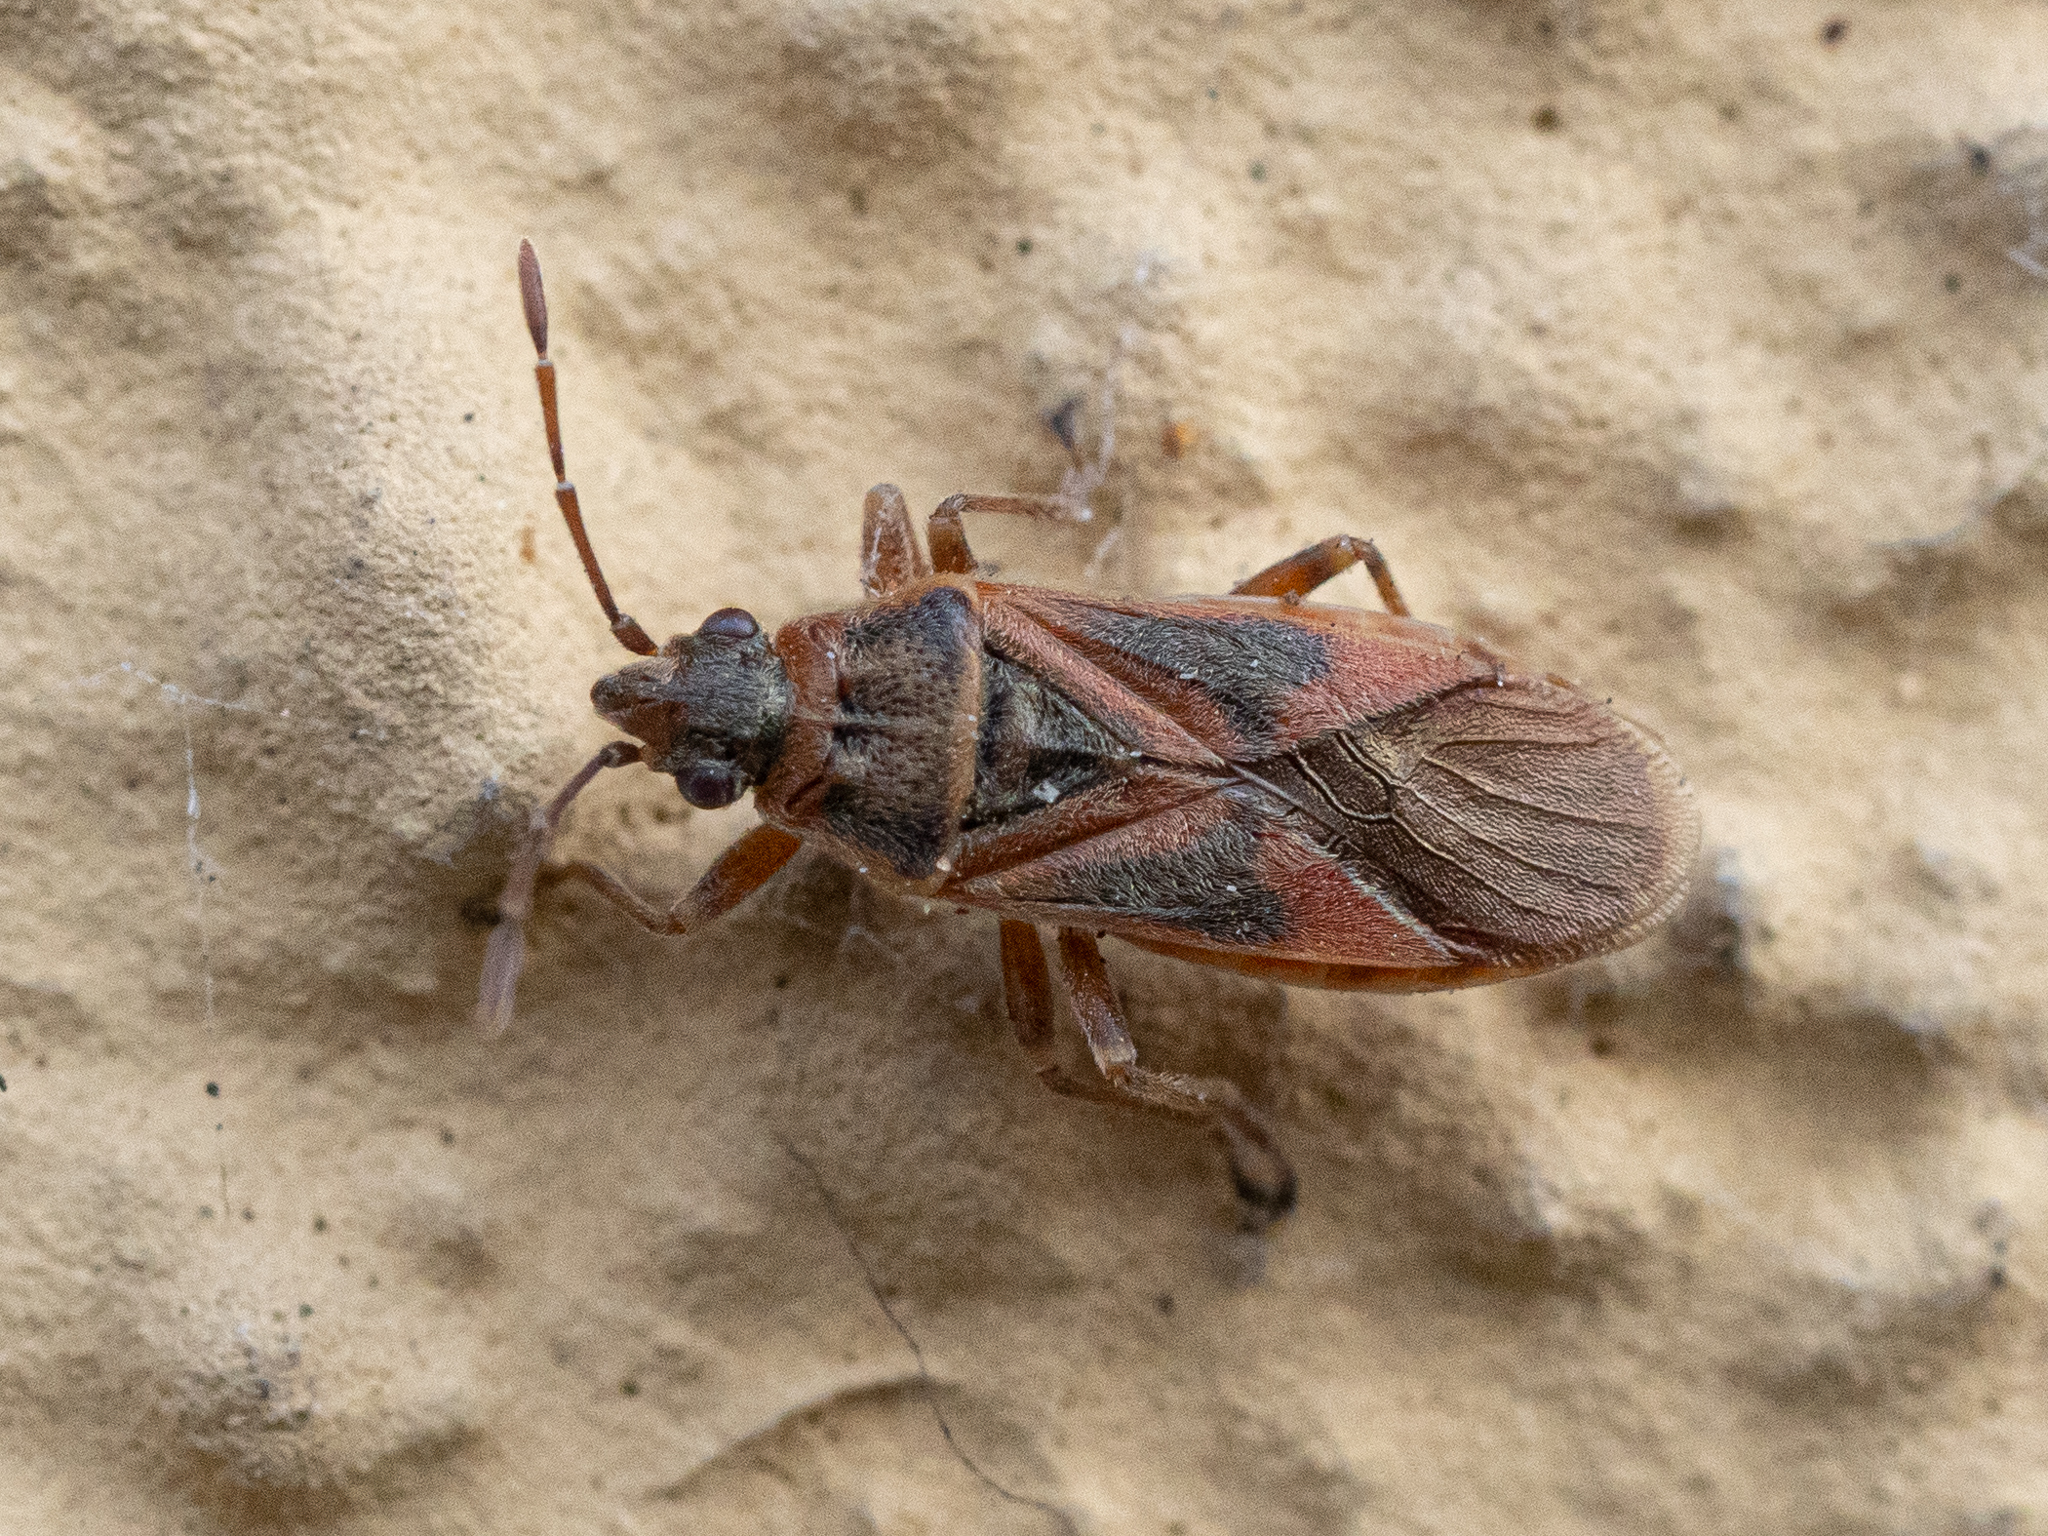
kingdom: Animalia
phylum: Arthropoda
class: Insecta
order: Hemiptera
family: Lygaeidae
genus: Arocatus
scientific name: Arocatus longiceps
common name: Plane tree bug
